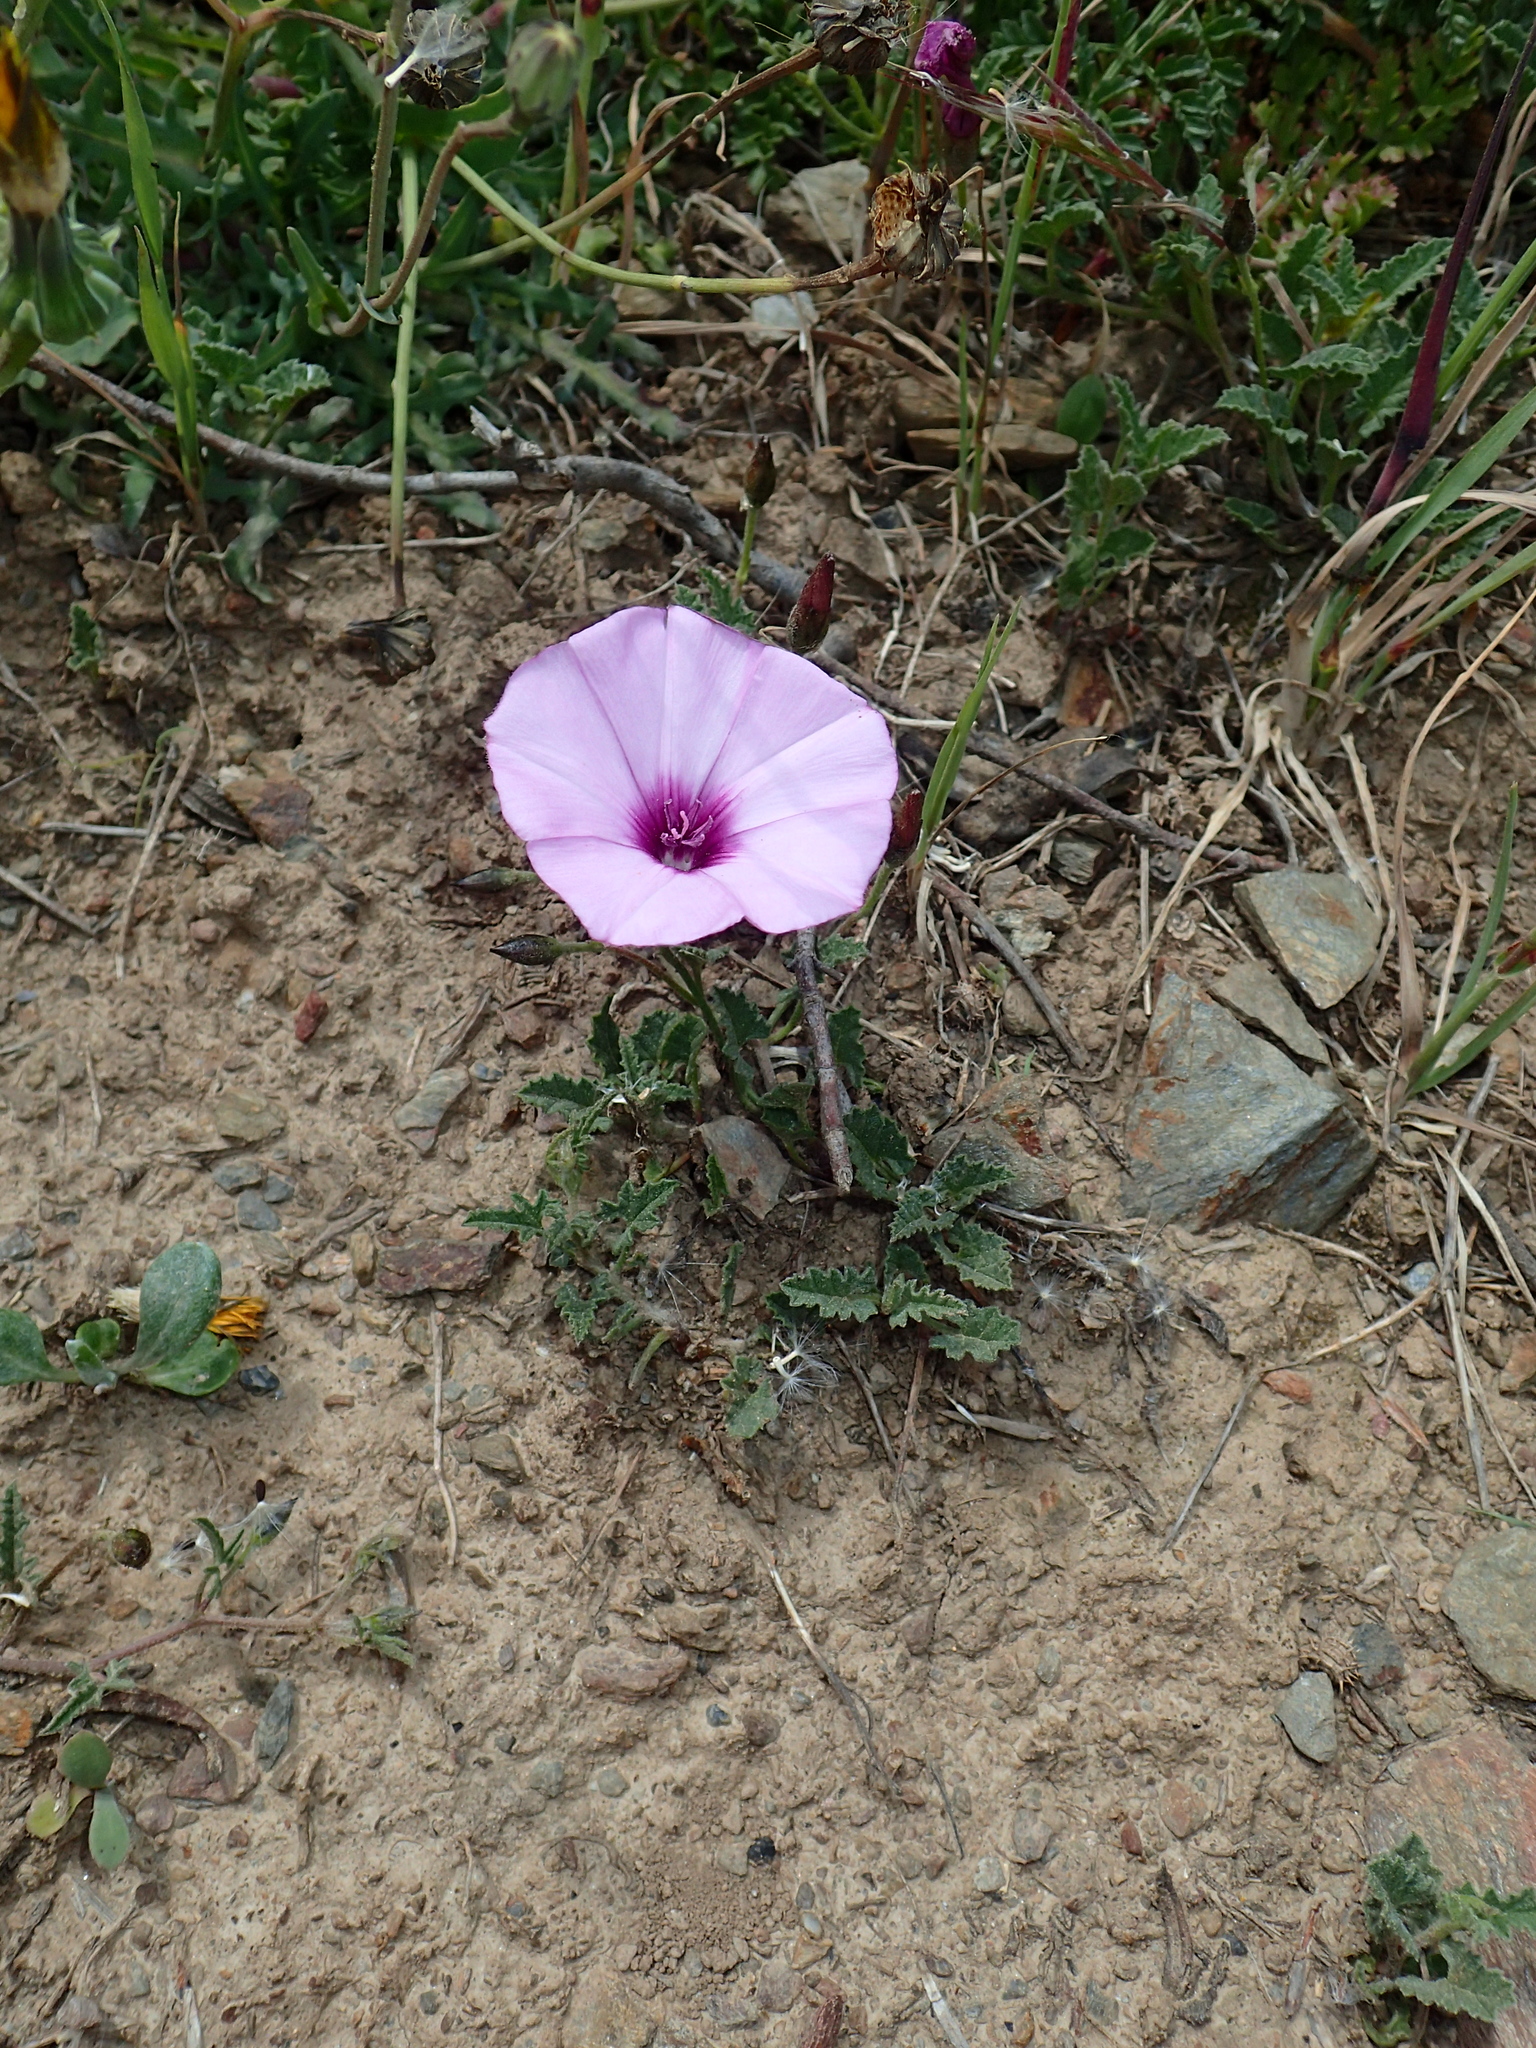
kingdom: Plantae
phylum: Tracheophyta
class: Magnoliopsida
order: Solanales
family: Convolvulaceae
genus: Convolvulus
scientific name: Convolvulus althaeoides
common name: Mallow bindweed
